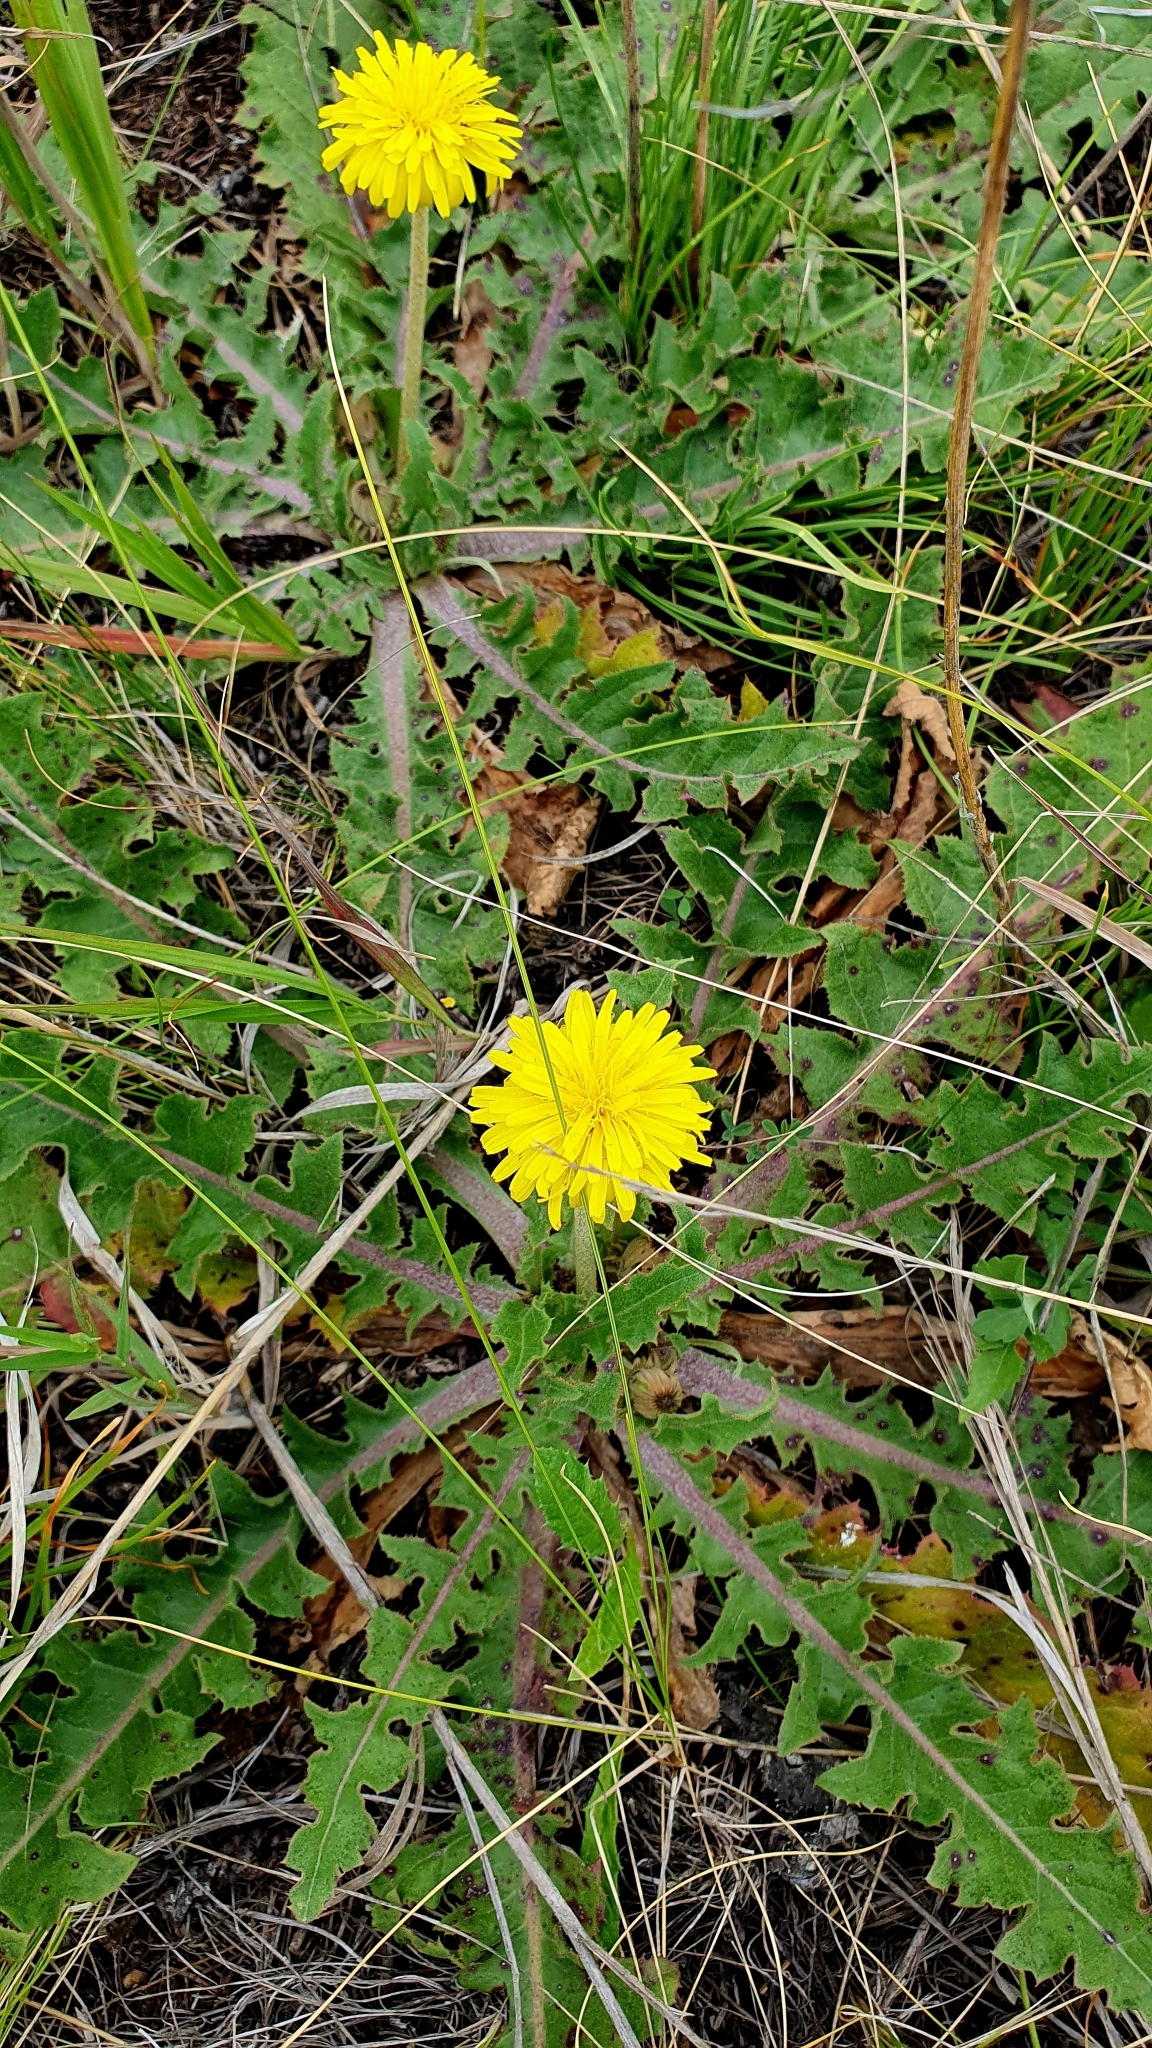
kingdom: Plantae
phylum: Tracheophyta
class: Magnoliopsida
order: Asterales
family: Asteraceae
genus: Taraxacum
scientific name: Taraxacum serotinum
